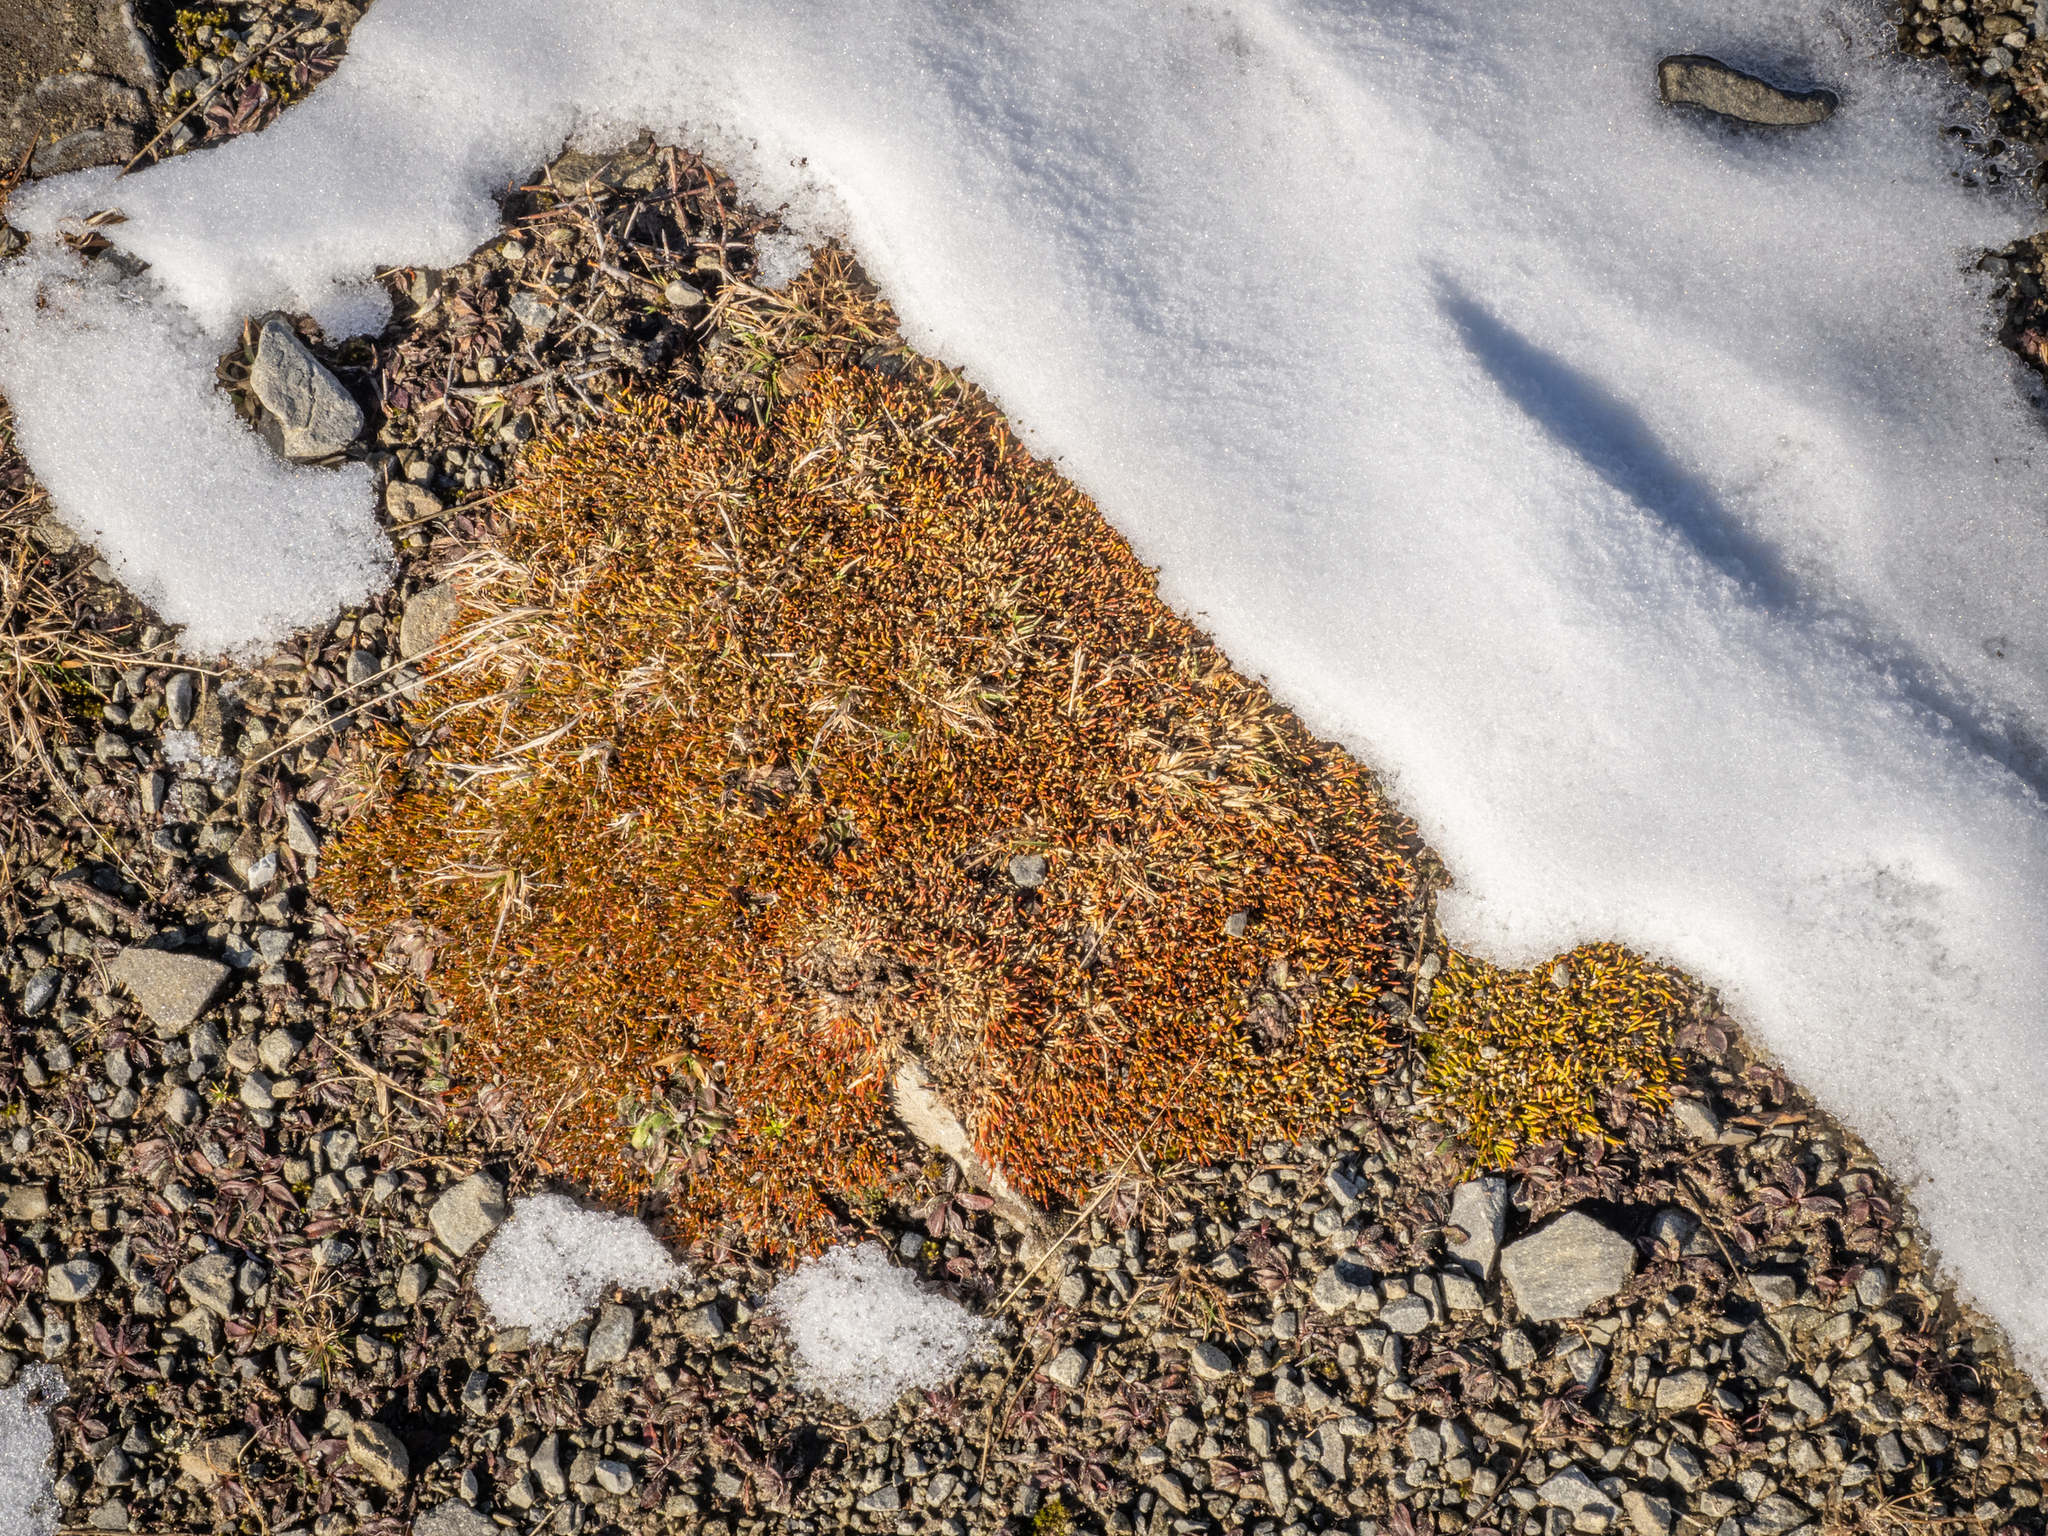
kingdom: Plantae
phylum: Tracheophyta
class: Magnoliopsida
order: Fabales
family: Fabaceae
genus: Carmichaelia
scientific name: Carmichaelia nana
